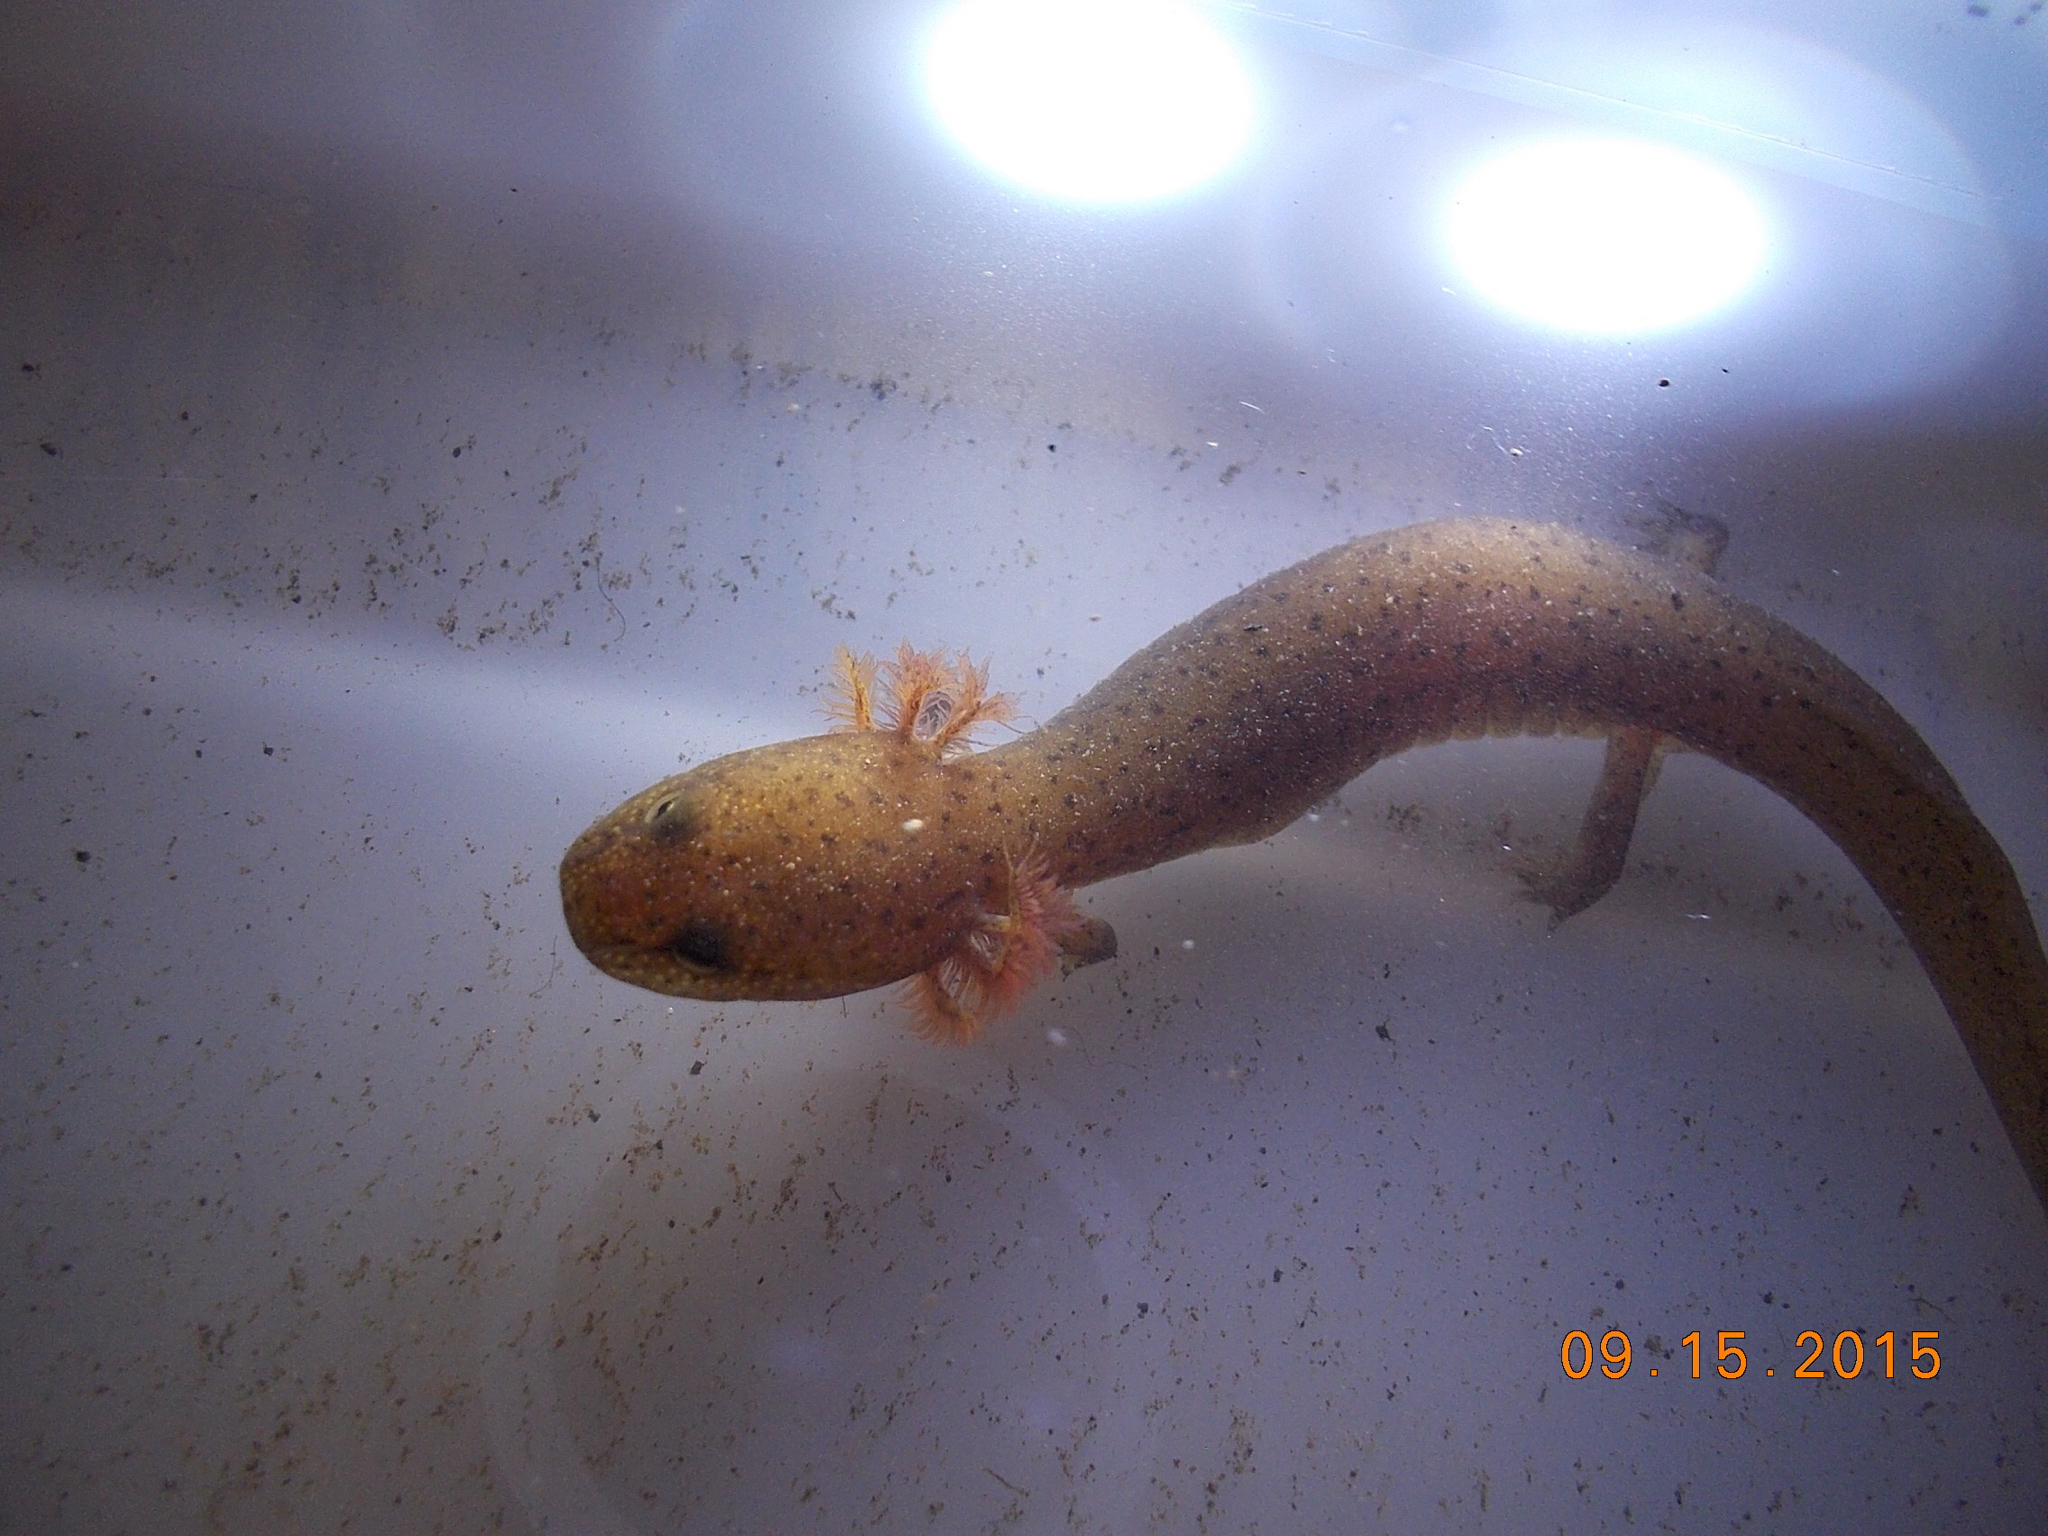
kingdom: Animalia
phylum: Chordata
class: Amphibia
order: Caudata
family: Plethodontidae
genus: Pseudotriton
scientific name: Pseudotriton ruber
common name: Red salamander
